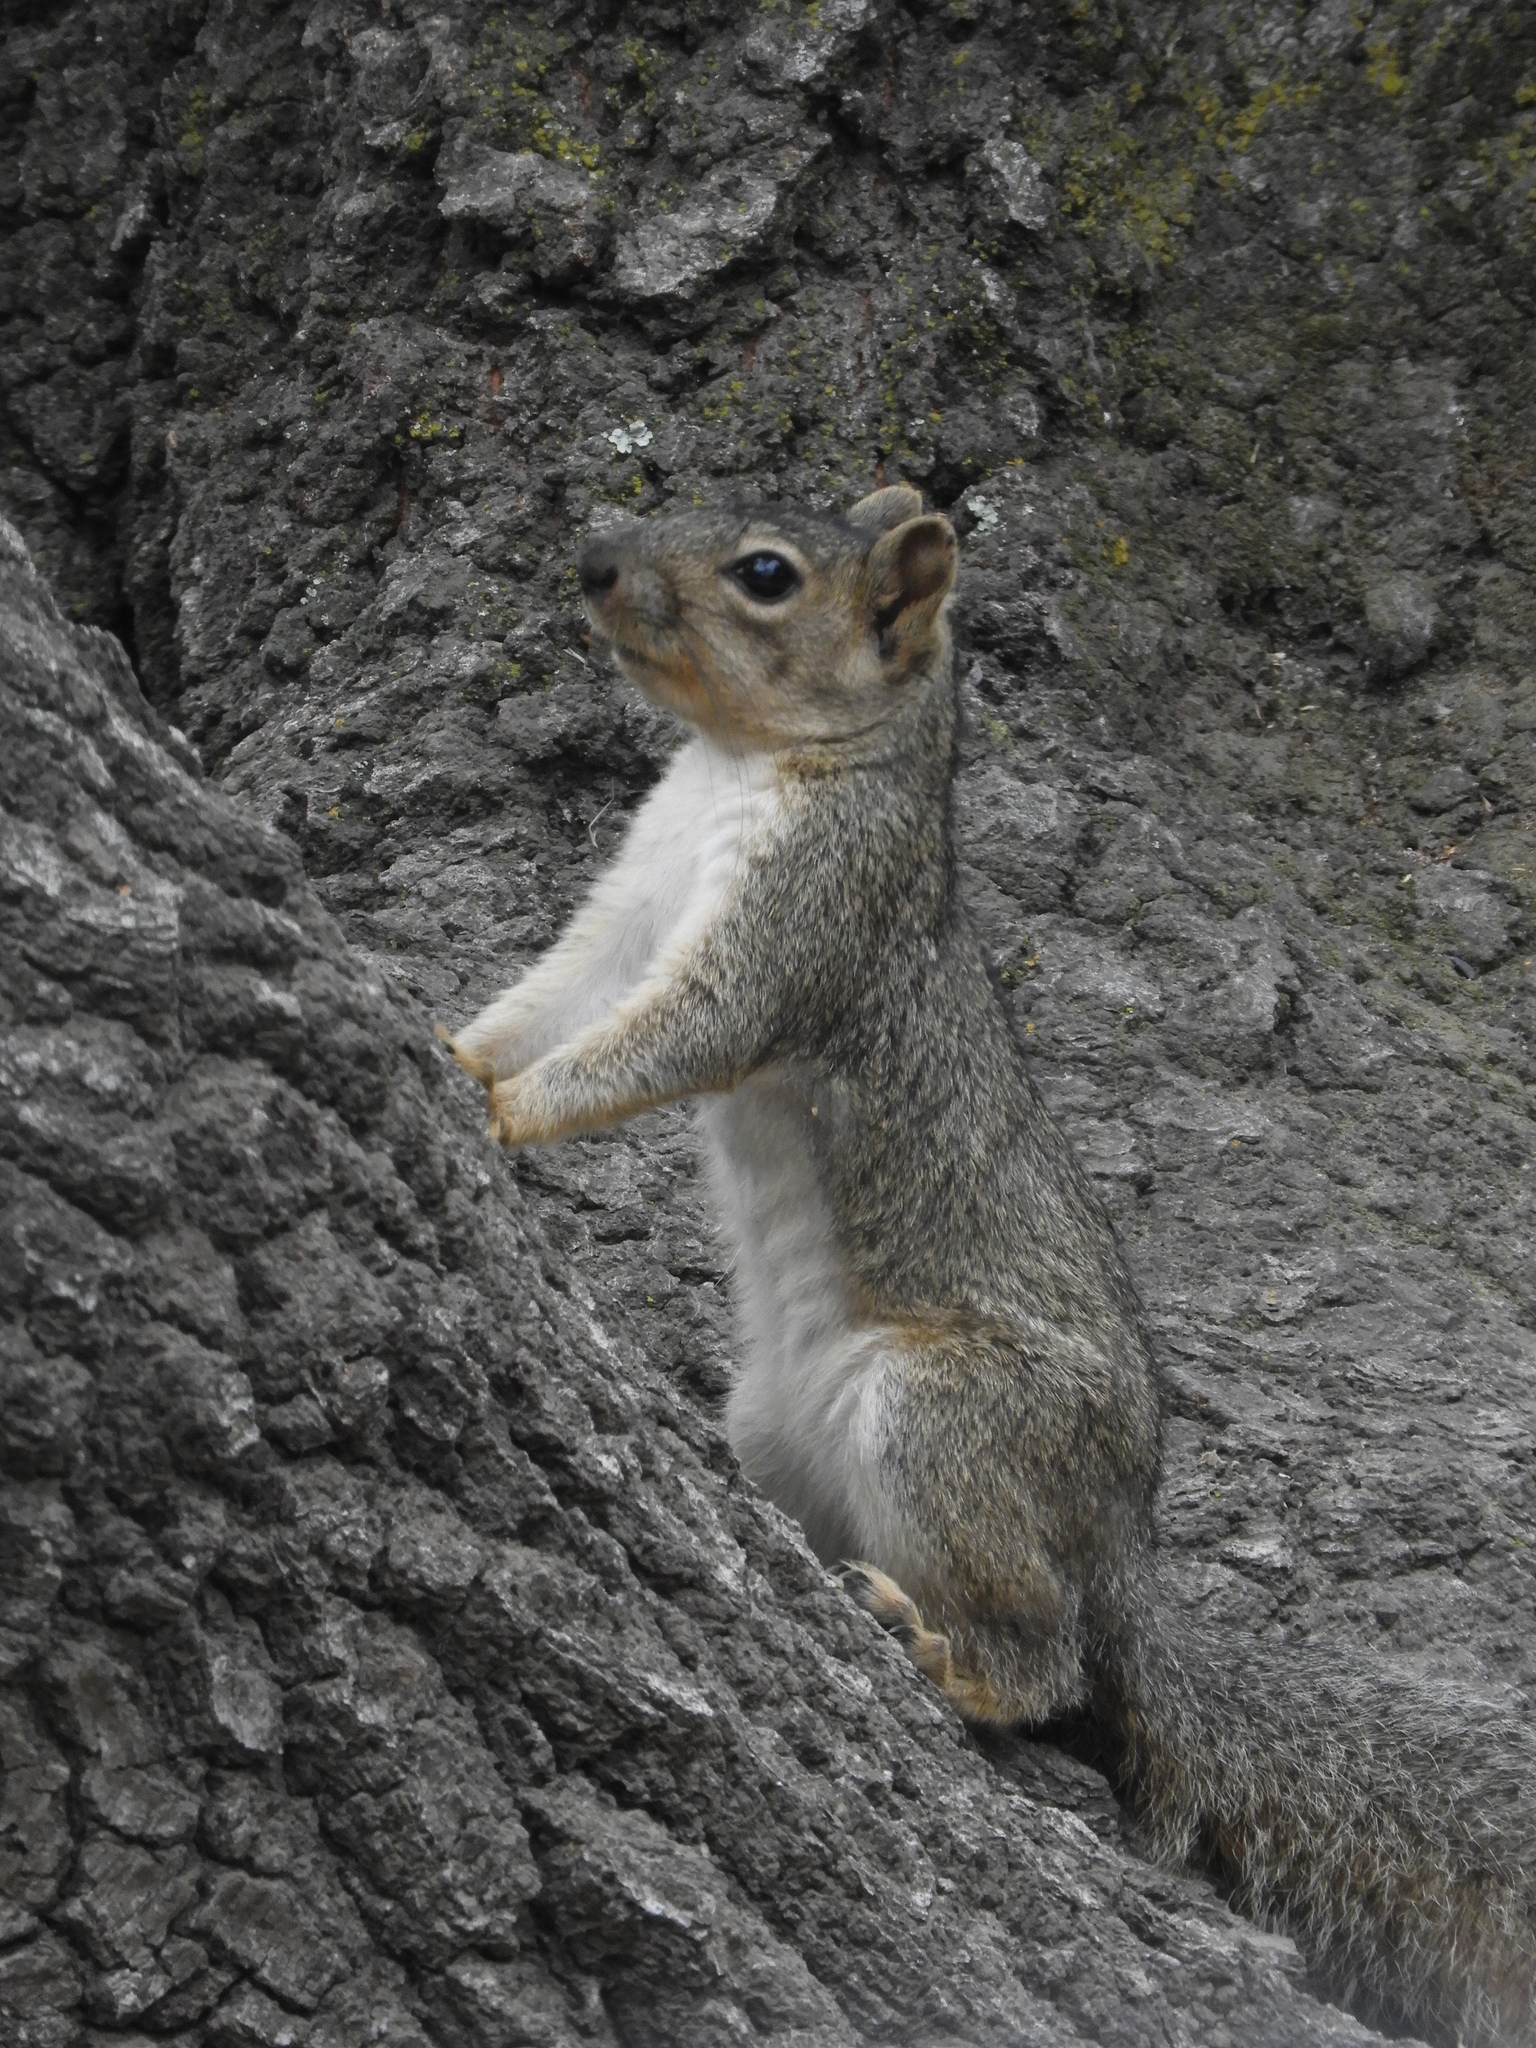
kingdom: Animalia
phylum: Chordata
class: Mammalia
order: Rodentia
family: Sciuridae
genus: Sciurus
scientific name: Sciurus carolinensis
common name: Eastern gray squirrel
